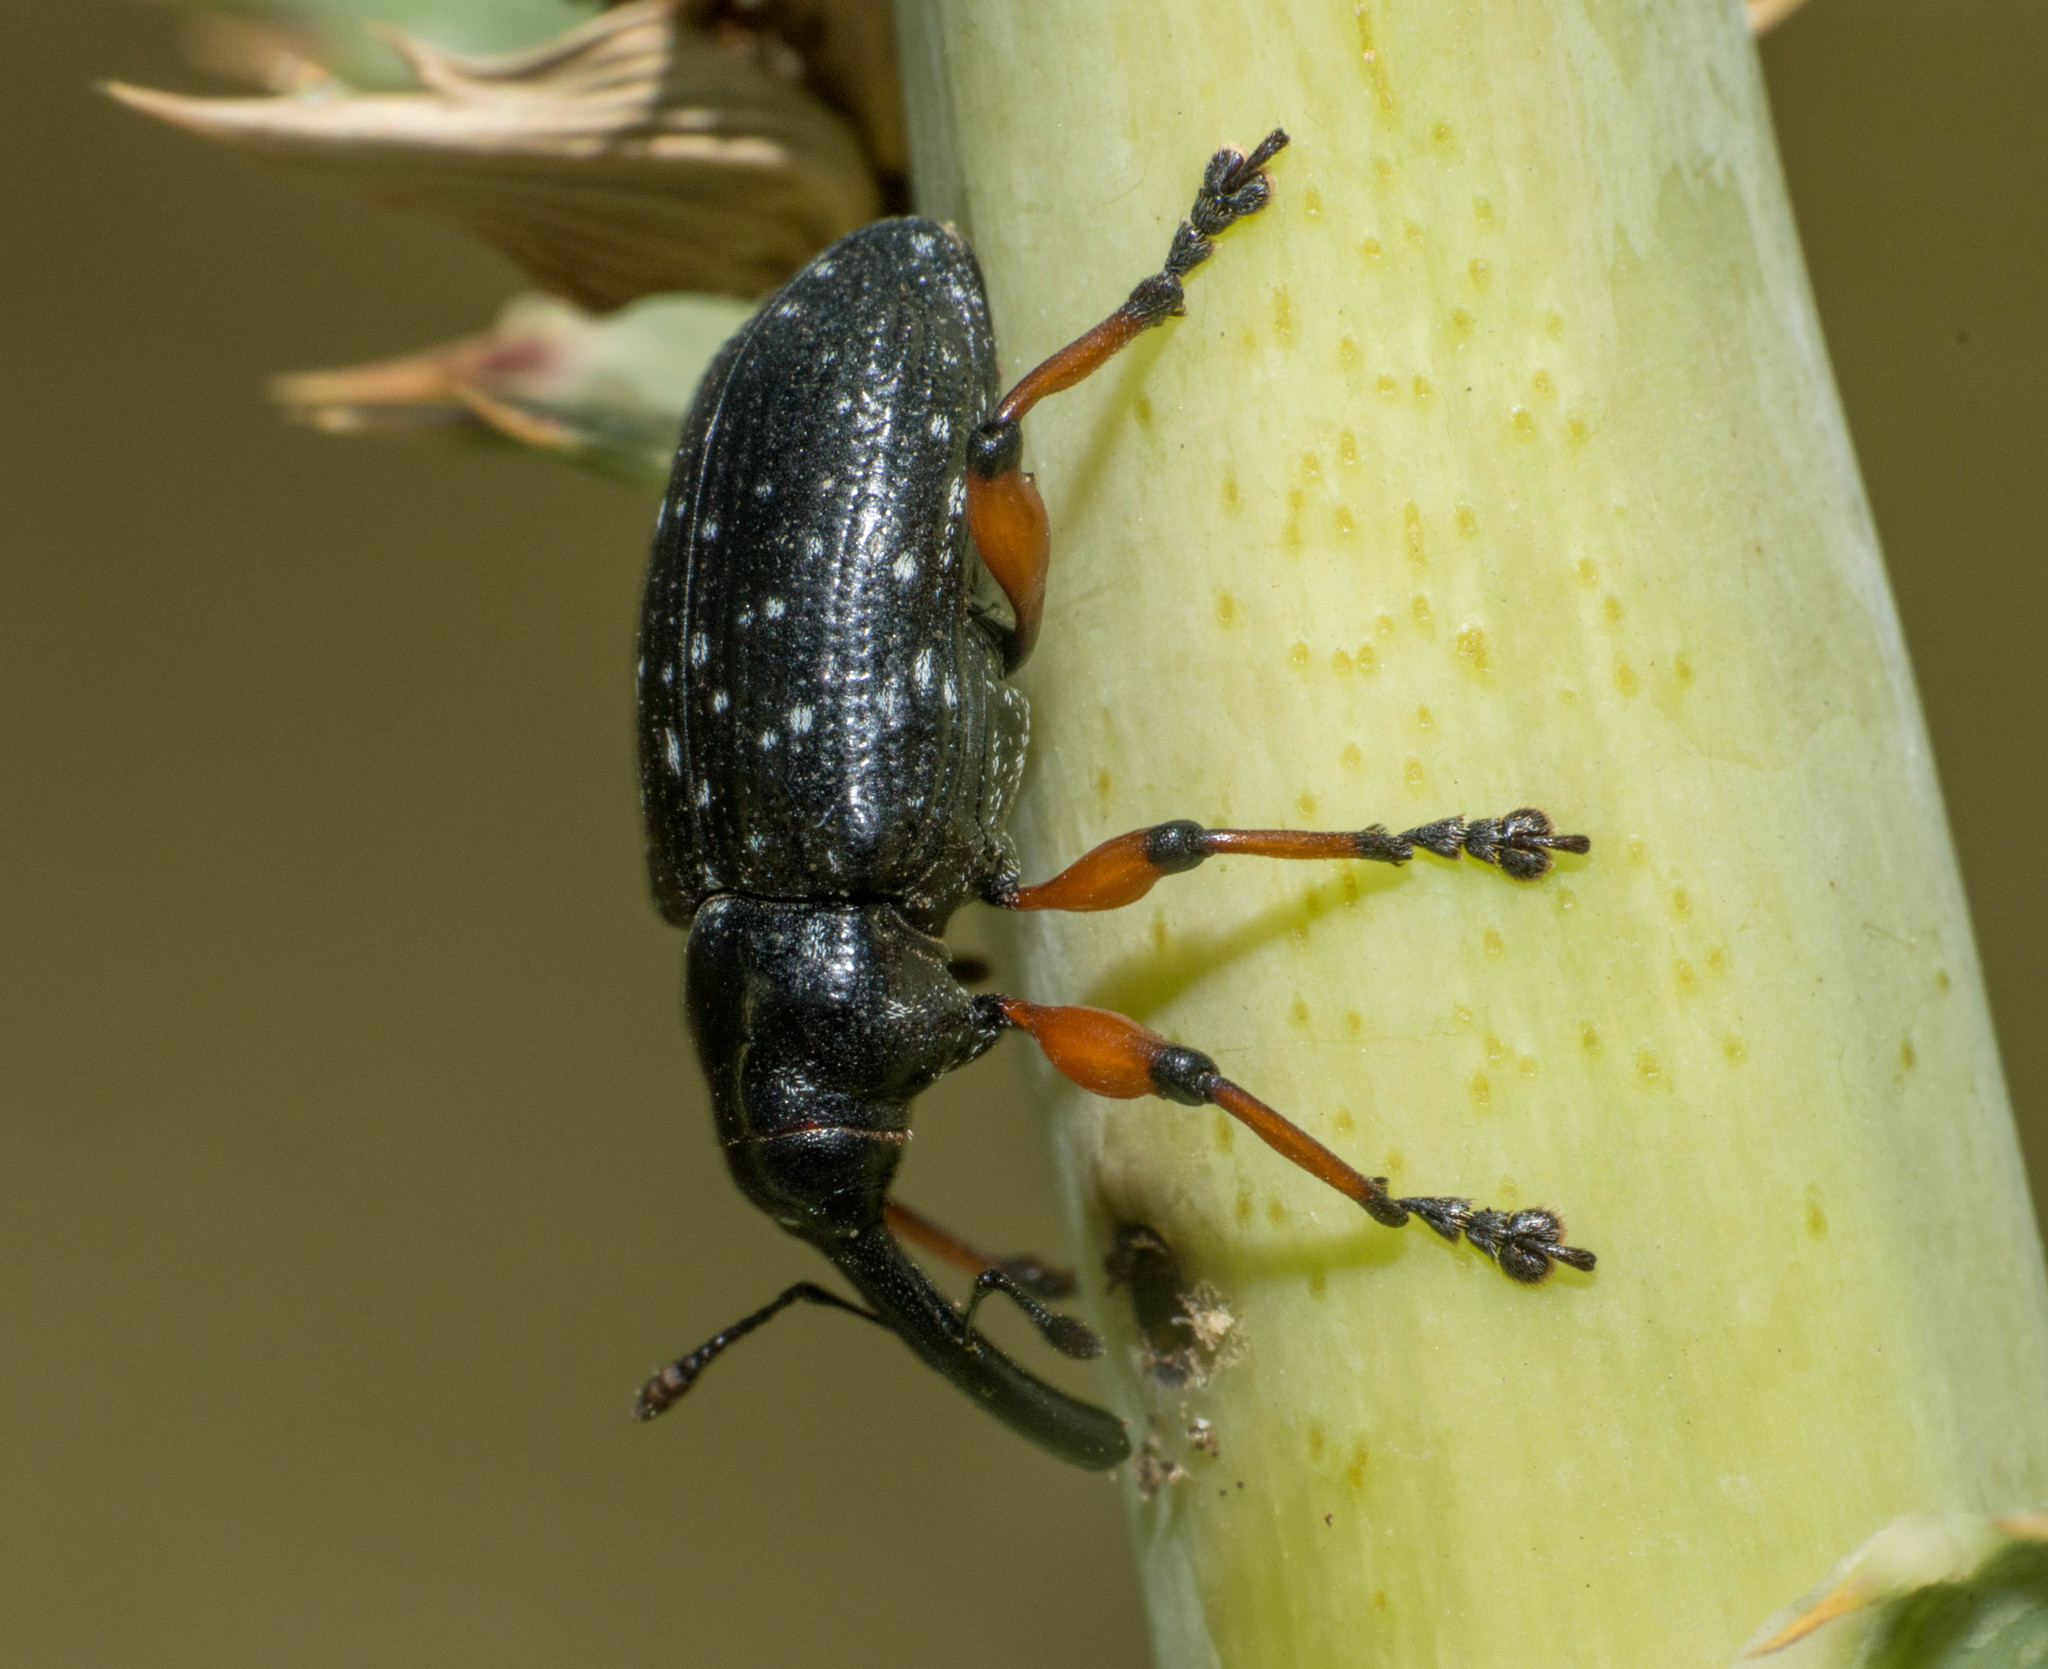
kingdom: Animalia
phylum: Arthropoda
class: Insecta
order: Coleoptera
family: Curculionidae
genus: Heilipodus
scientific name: Heilipodus erythropus
